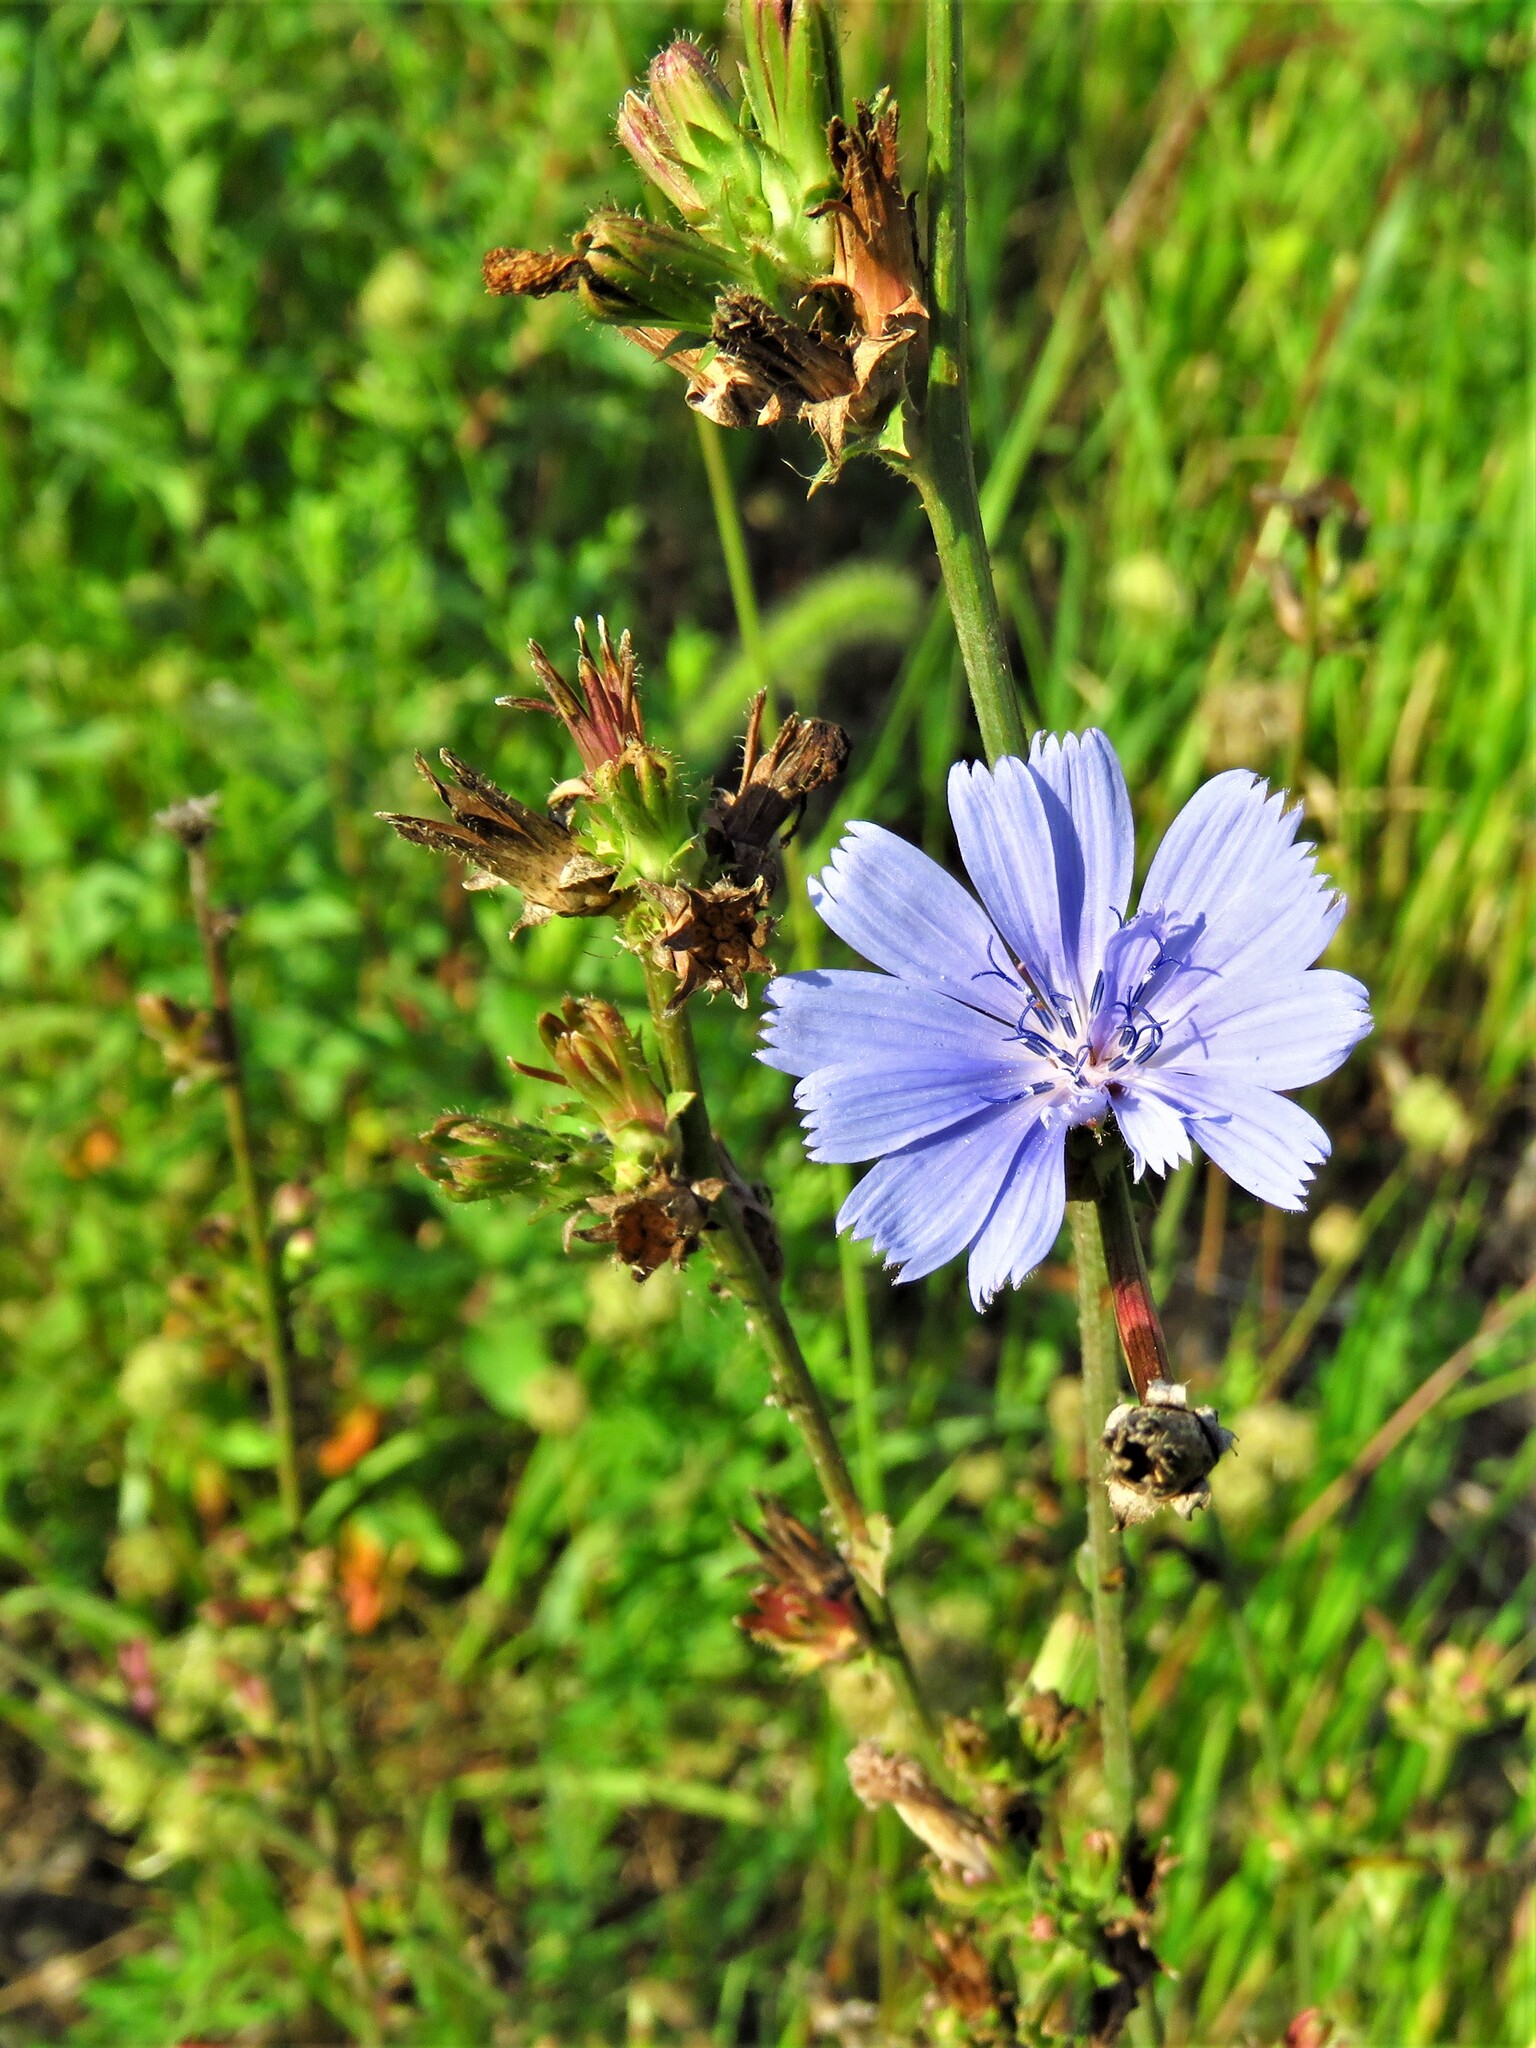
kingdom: Plantae
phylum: Tracheophyta
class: Magnoliopsida
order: Asterales
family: Asteraceae
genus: Cichorium
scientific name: Cichorium intybus
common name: Chicory
